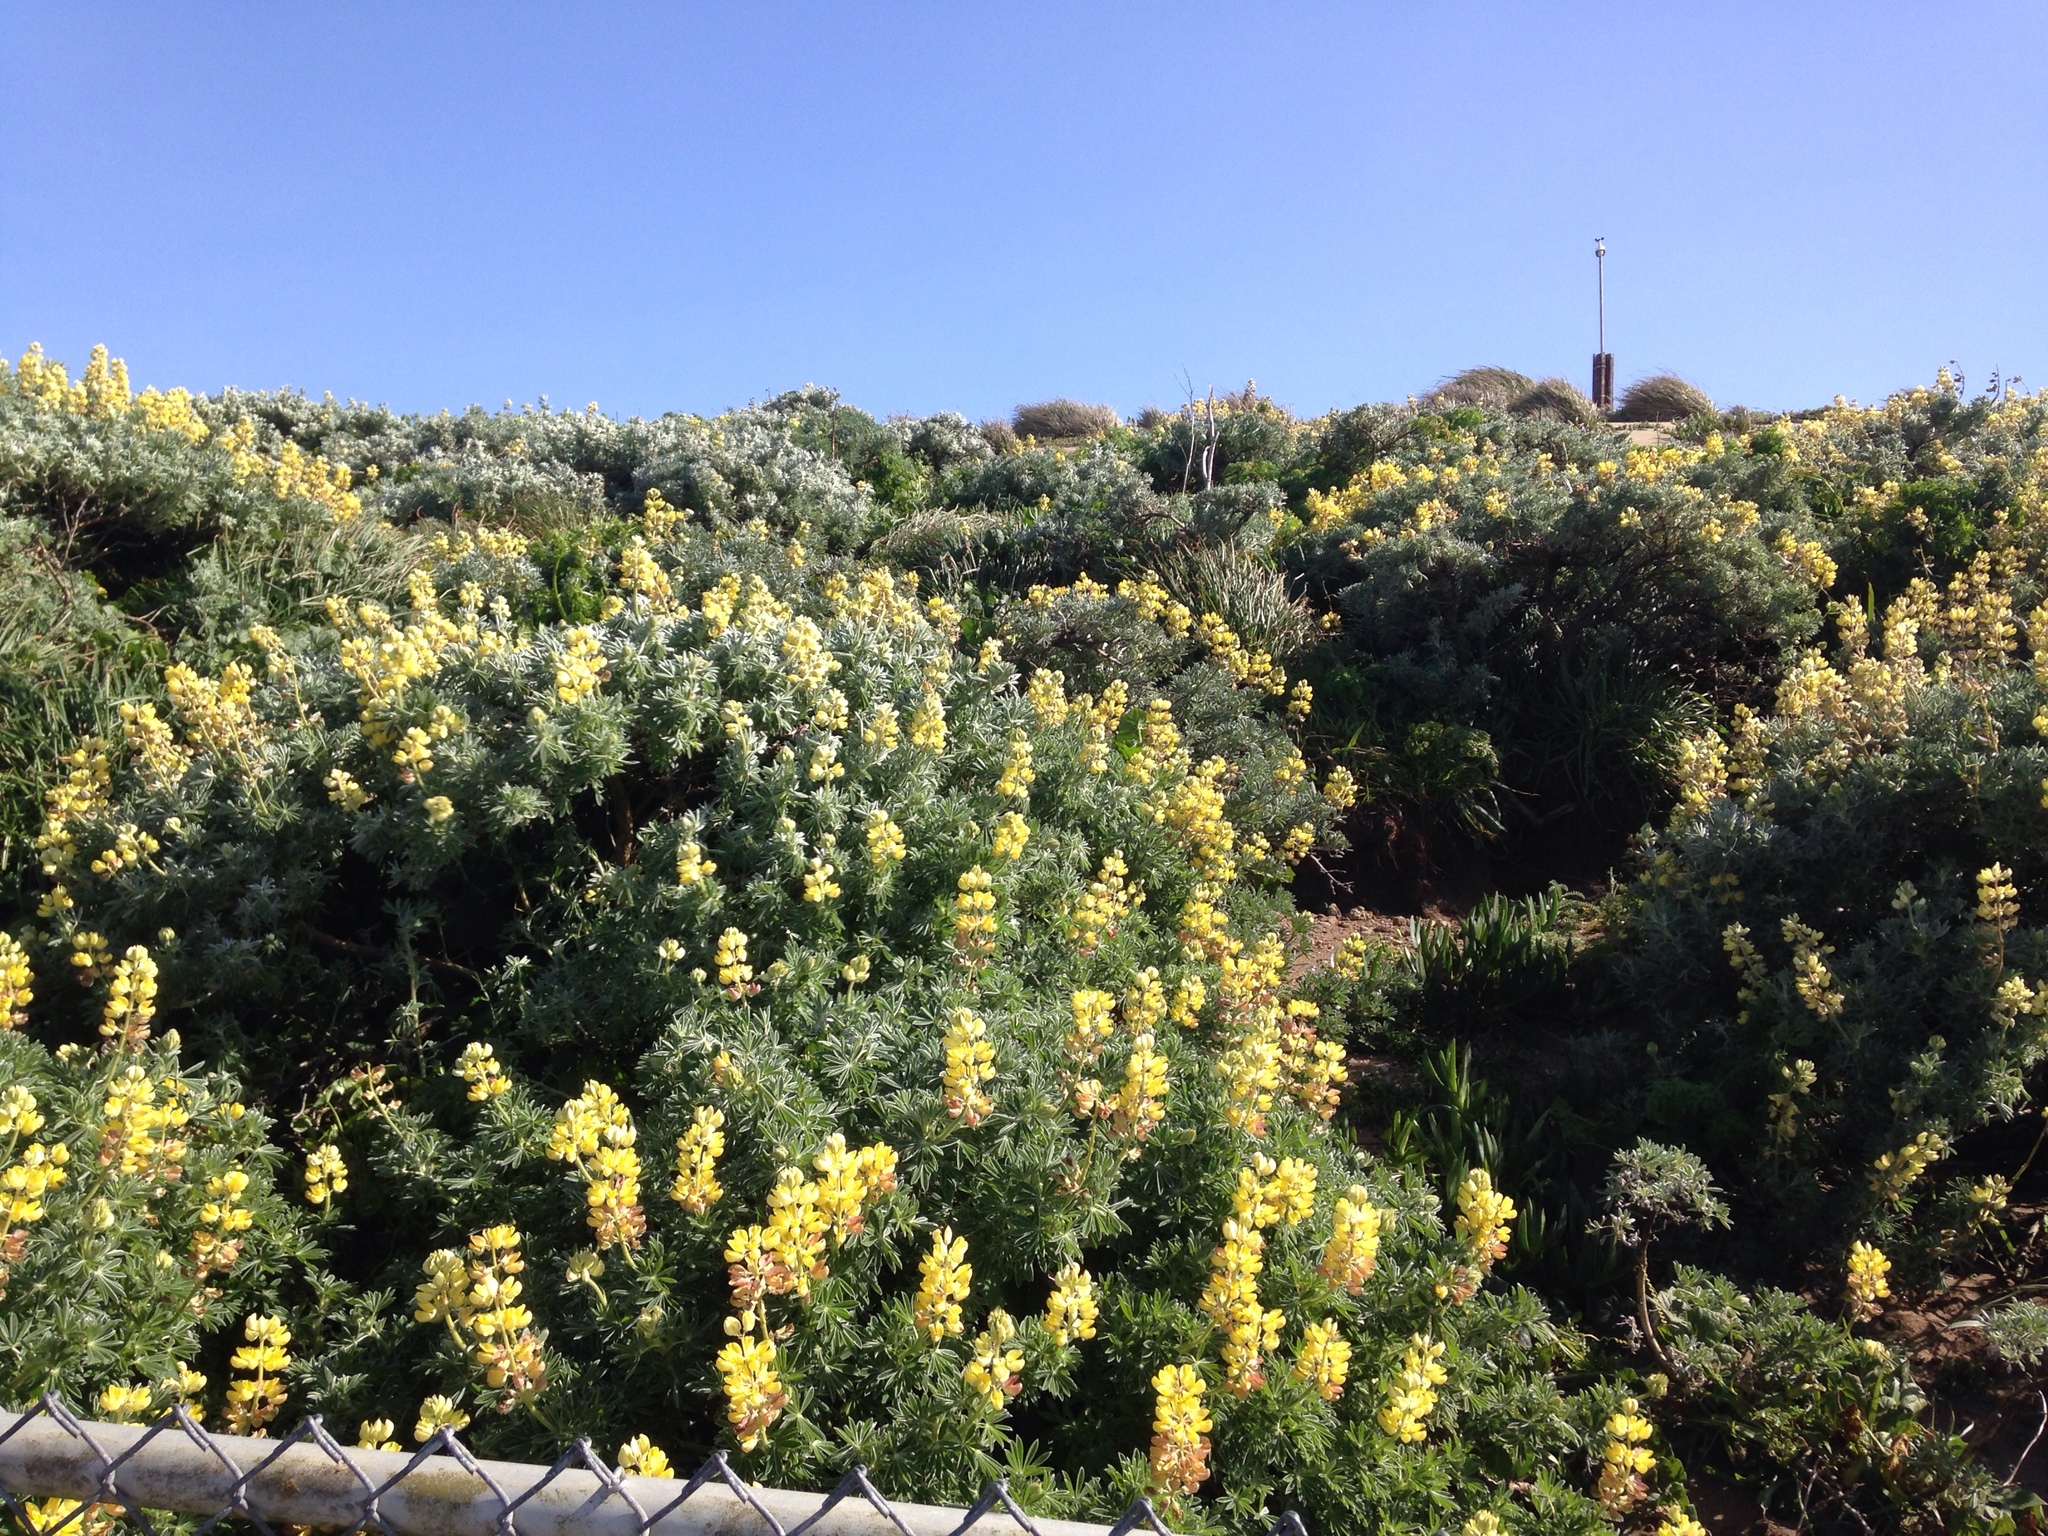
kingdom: Plantae
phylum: Tracheophyta
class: Magnoliopsida
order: Fabales
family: Fabaceae
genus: Lupinus
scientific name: Lupinus arboreus
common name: Yellow bush lupine
